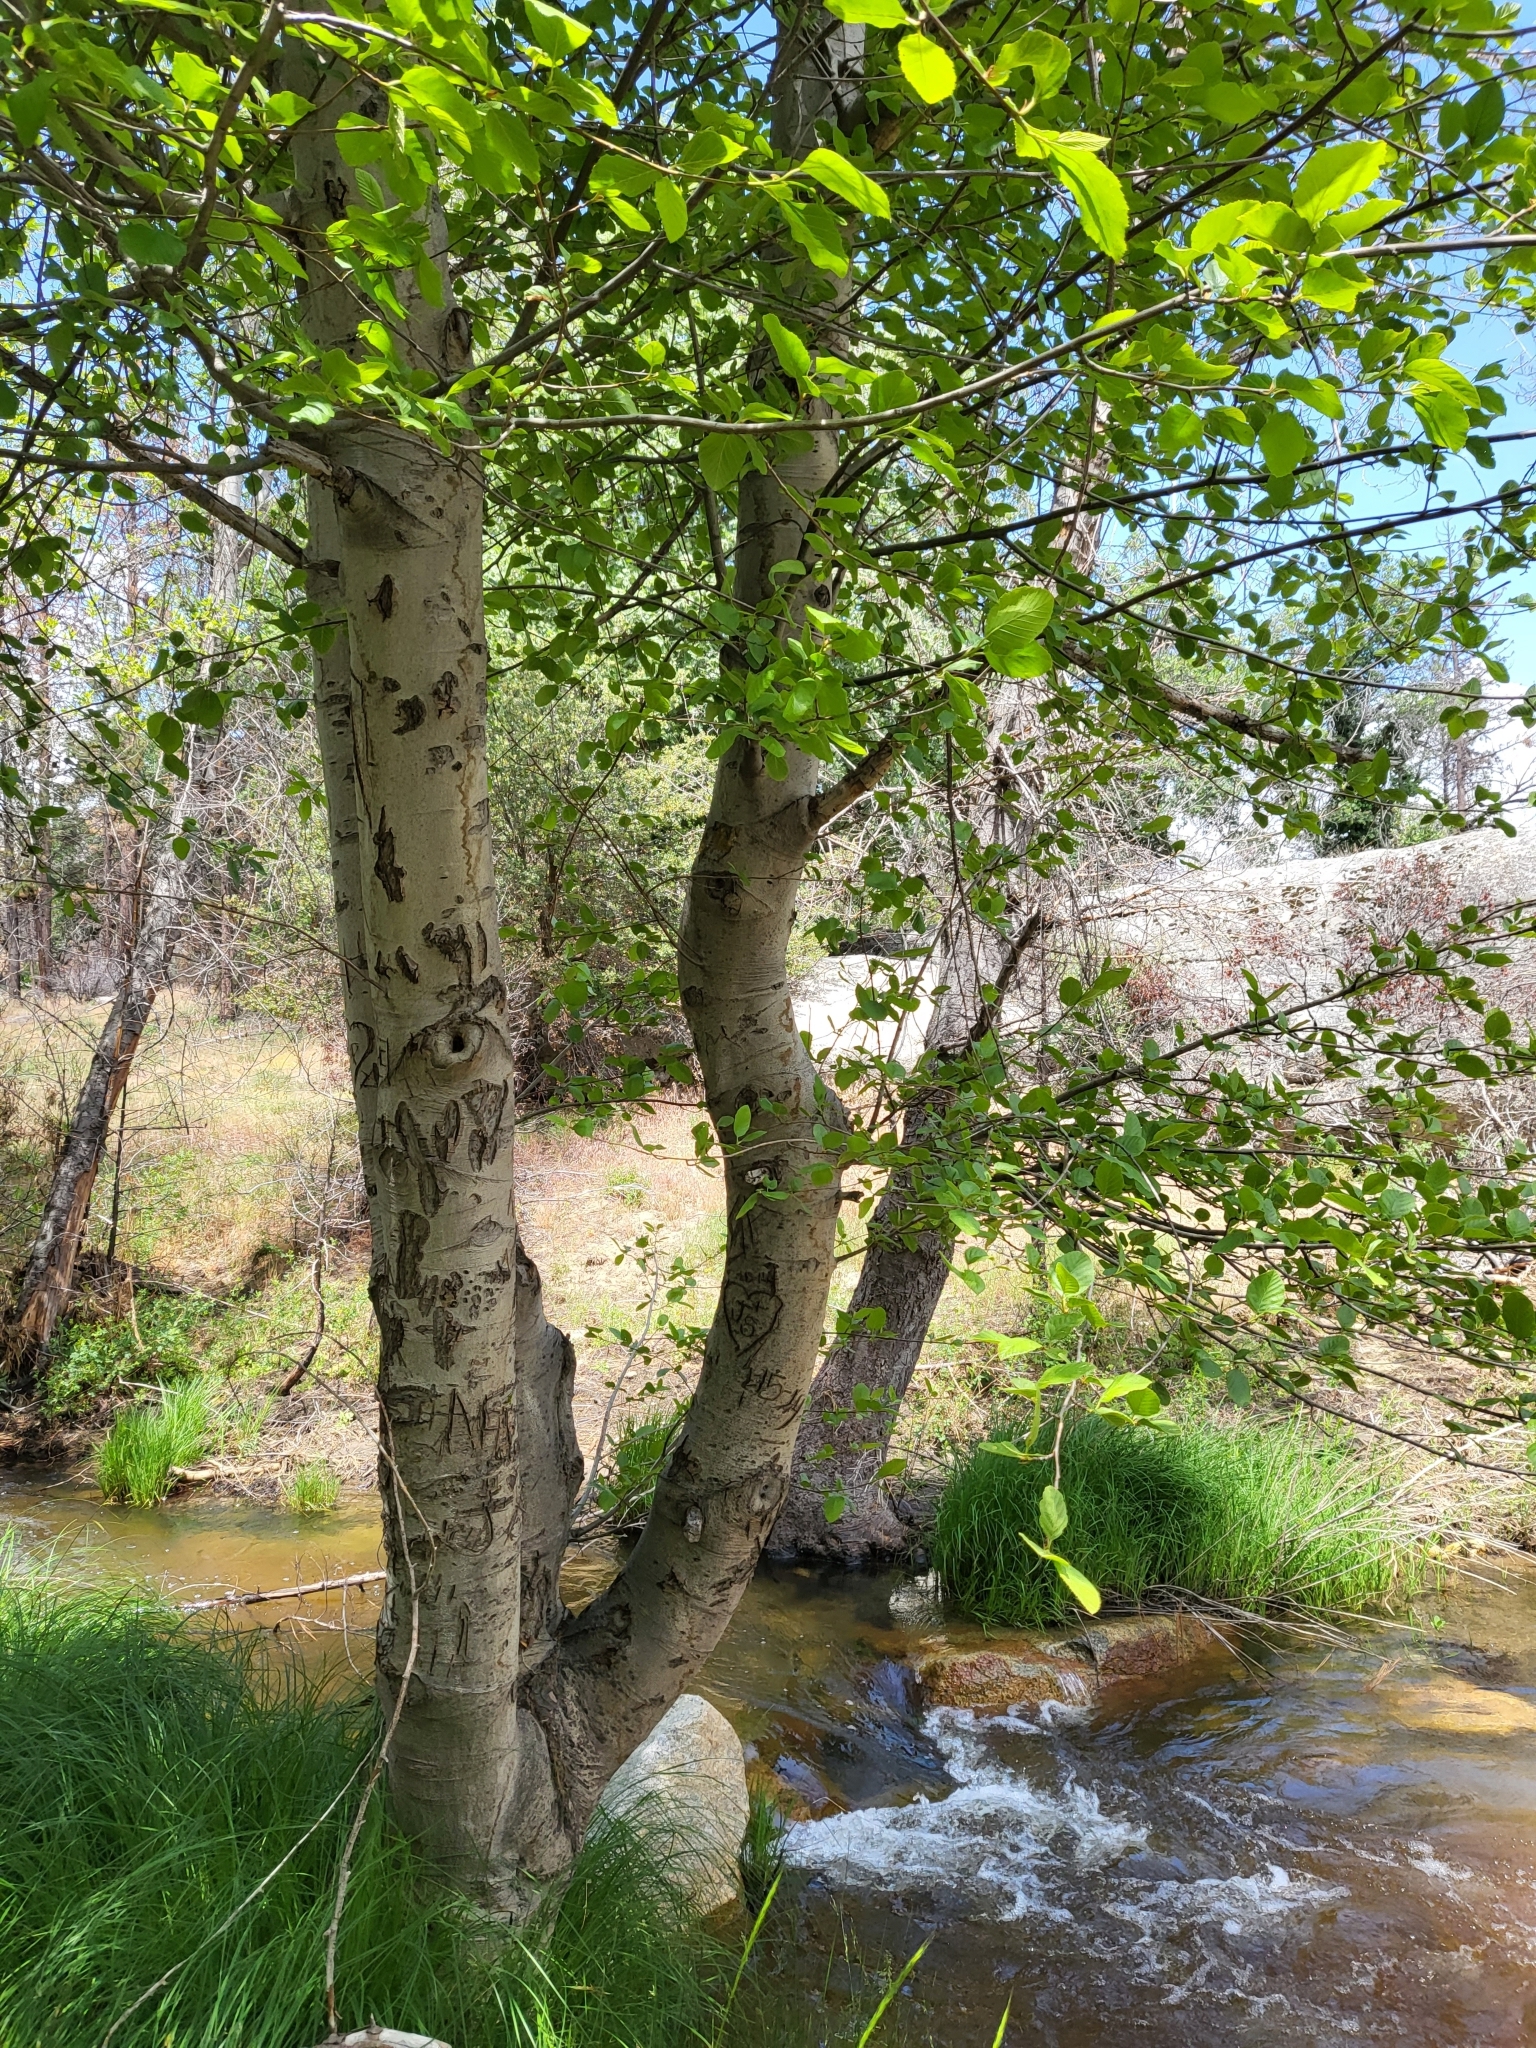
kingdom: Plantae
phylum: Tracheophyta
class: Magnoliopsida
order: Fagales
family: Betulaceae
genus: Alnus
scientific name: Alnus rhombifolia
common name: California alder
